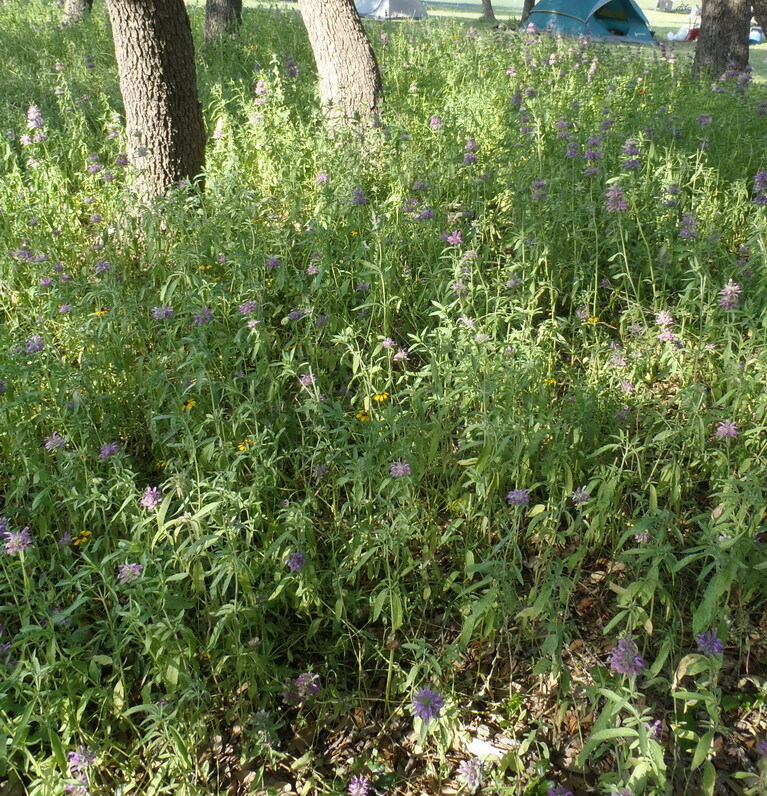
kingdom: Plantae
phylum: Tracheophyta
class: Magnoliopsida
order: Lamiales
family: Lamiaceae
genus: Monarda
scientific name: Monarda citriodora
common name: Lemon beebalm
